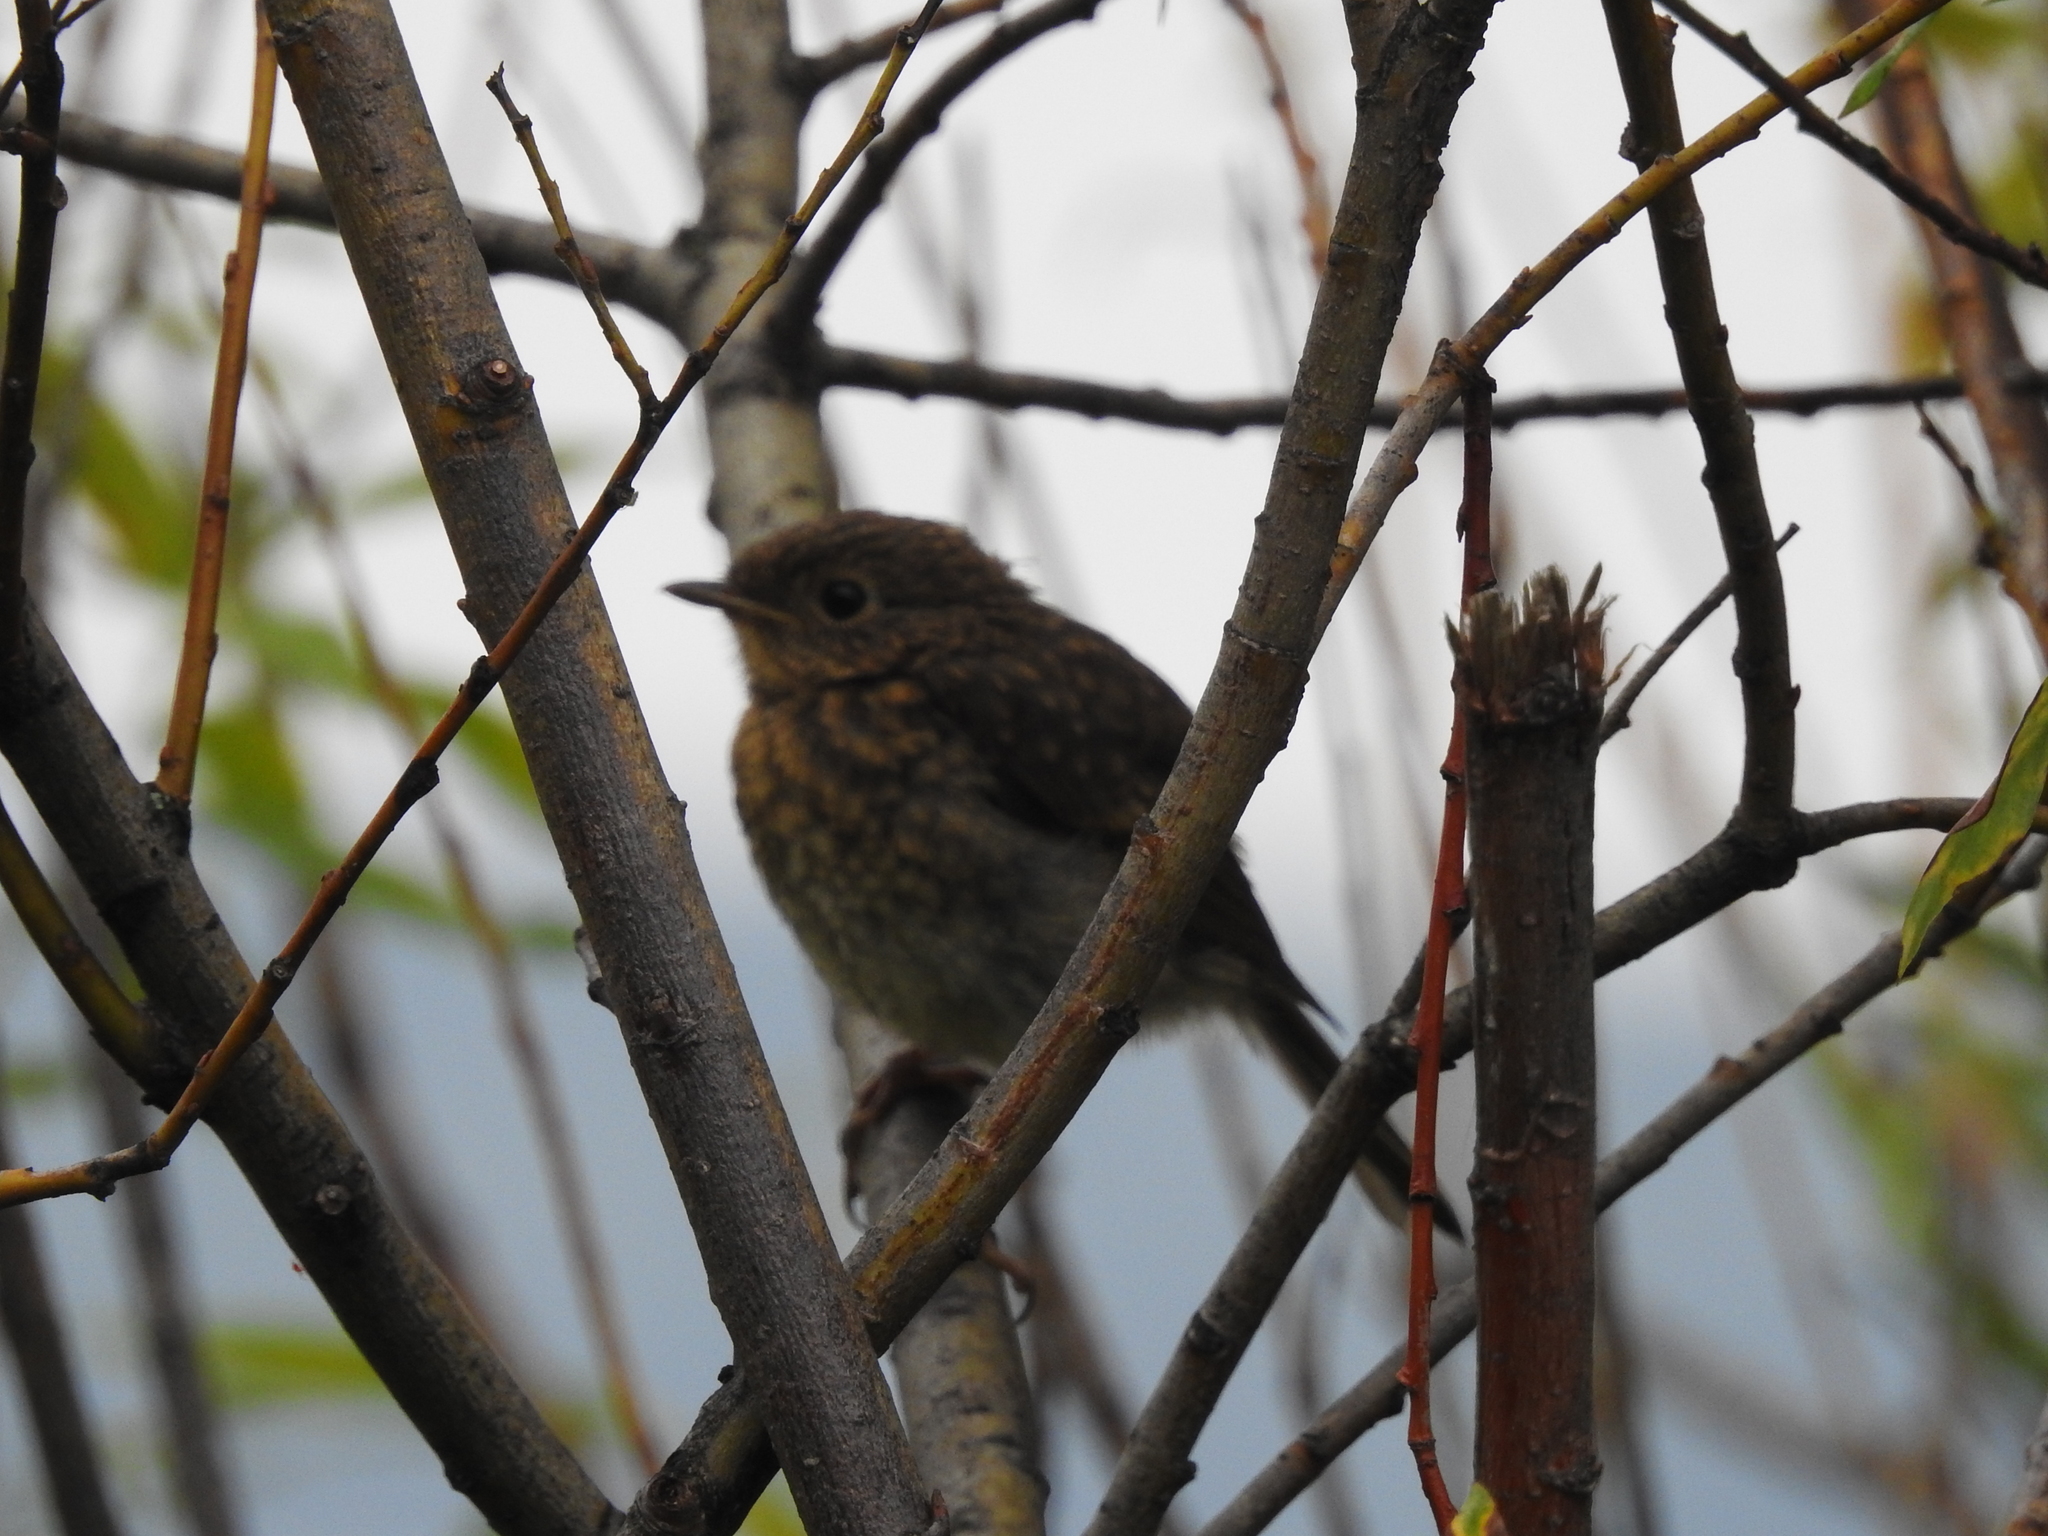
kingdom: Animalia
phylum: Chordata
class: Aves
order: Passeriformes
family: Muscicapidae
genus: Phoenicurus
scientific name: Phoenicurus phoenicurus
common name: Common redstart
